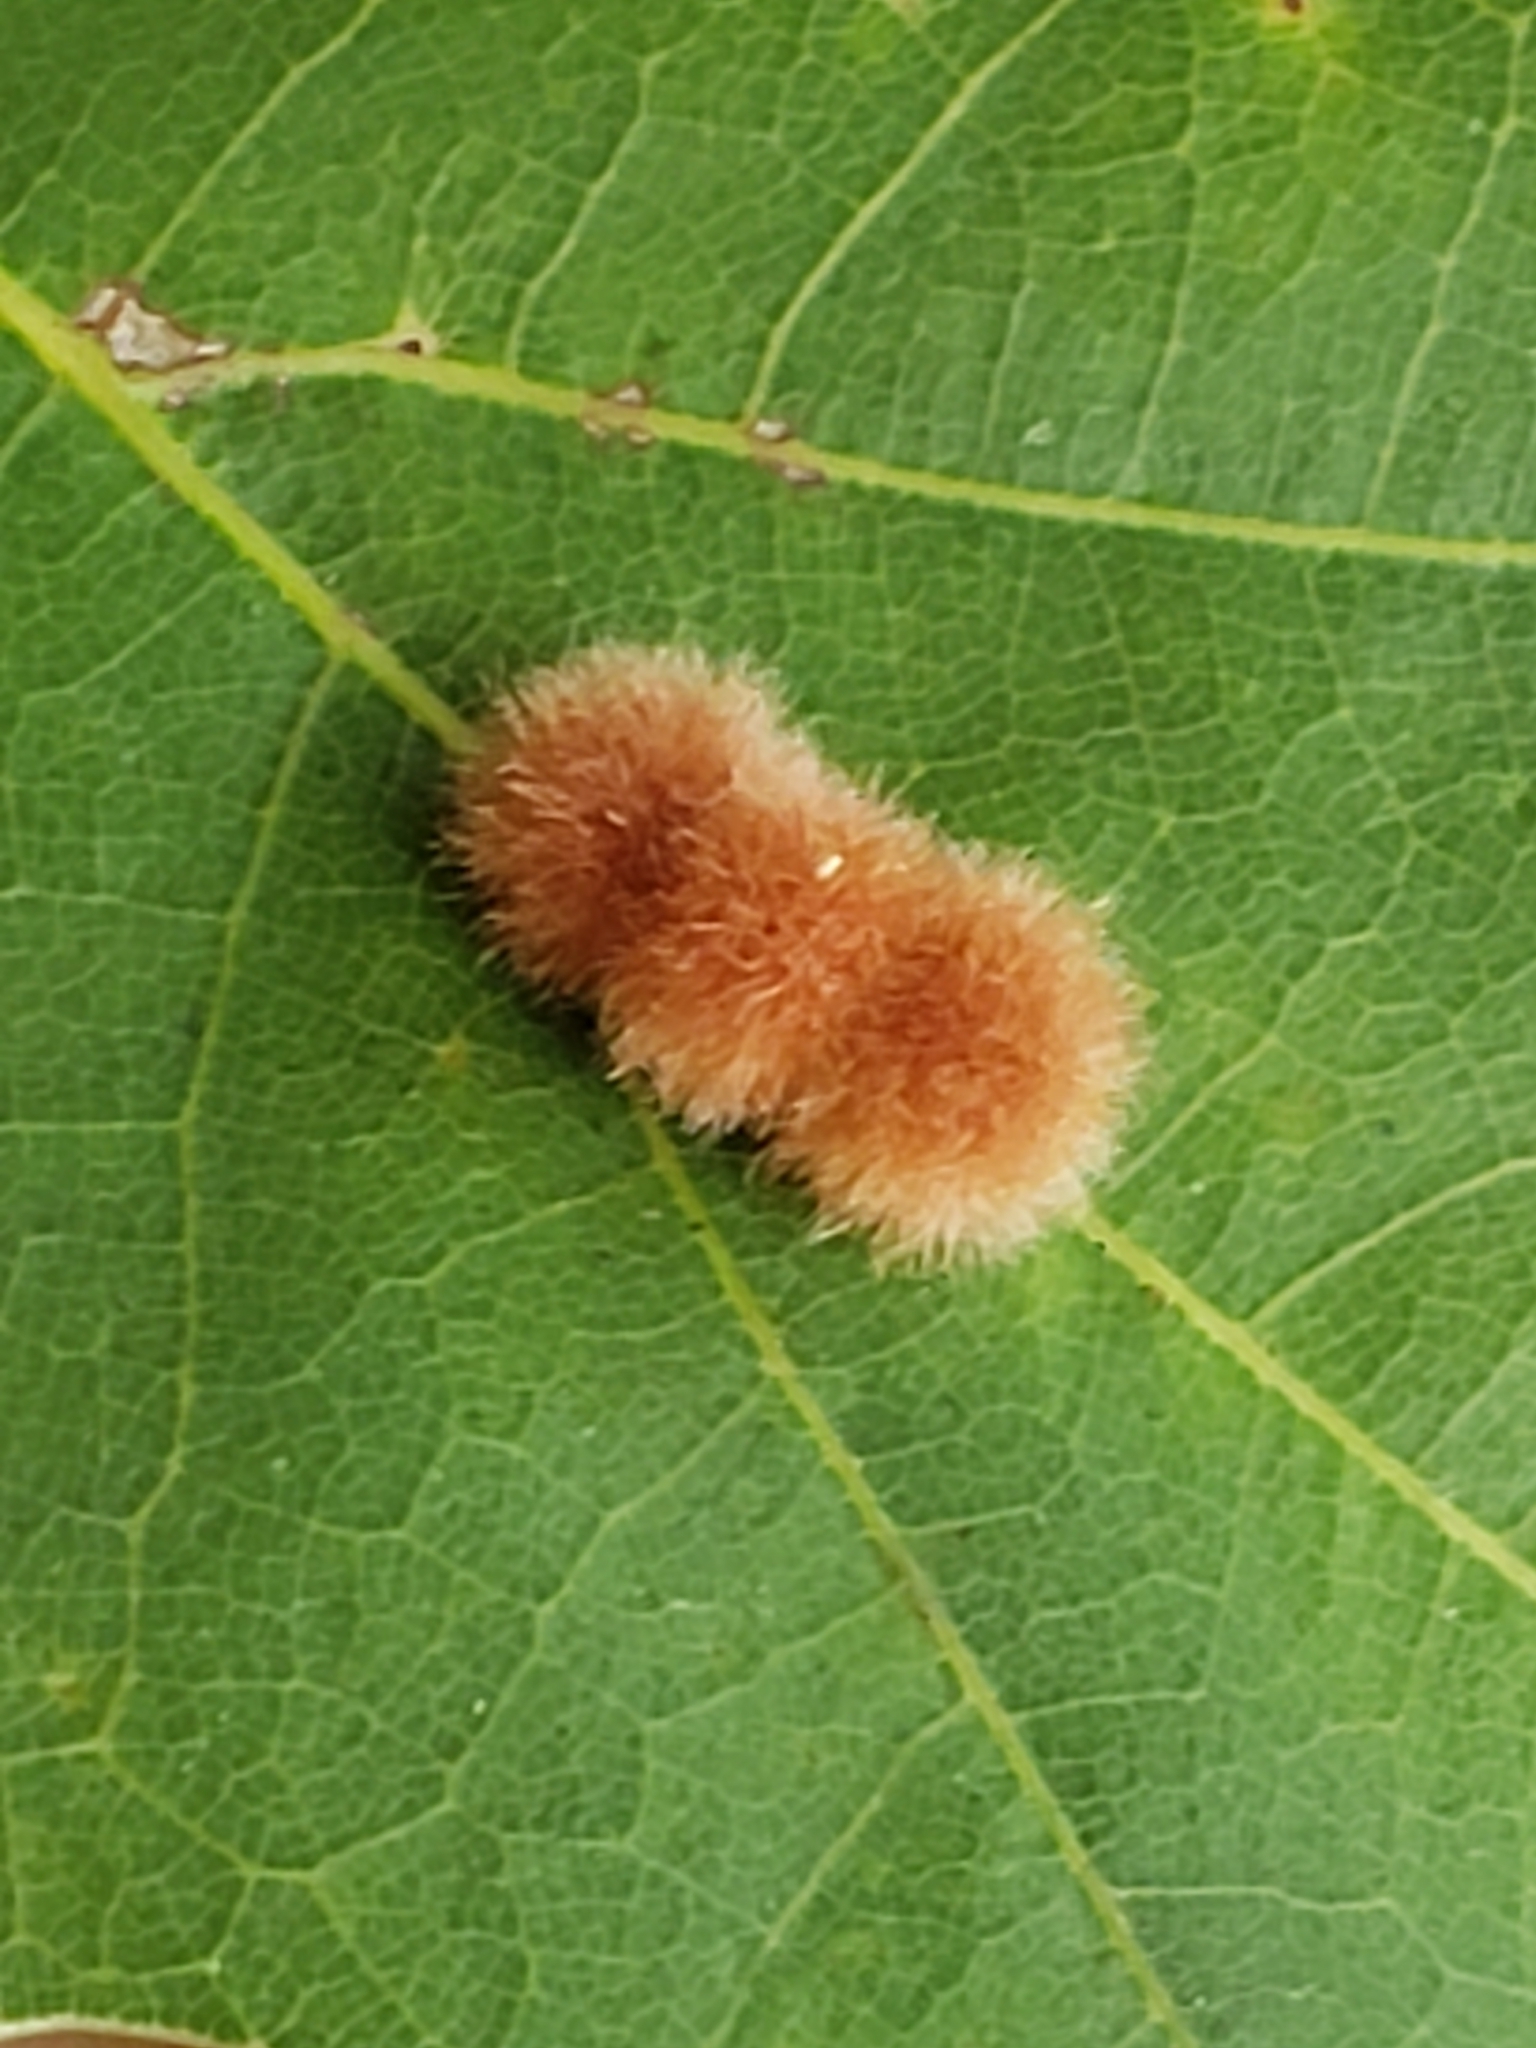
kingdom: Animalia
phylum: Arthropoda
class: Insecta
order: Hymenoptera
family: Cynipidae
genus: Callirhytis
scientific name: Callirhytis
